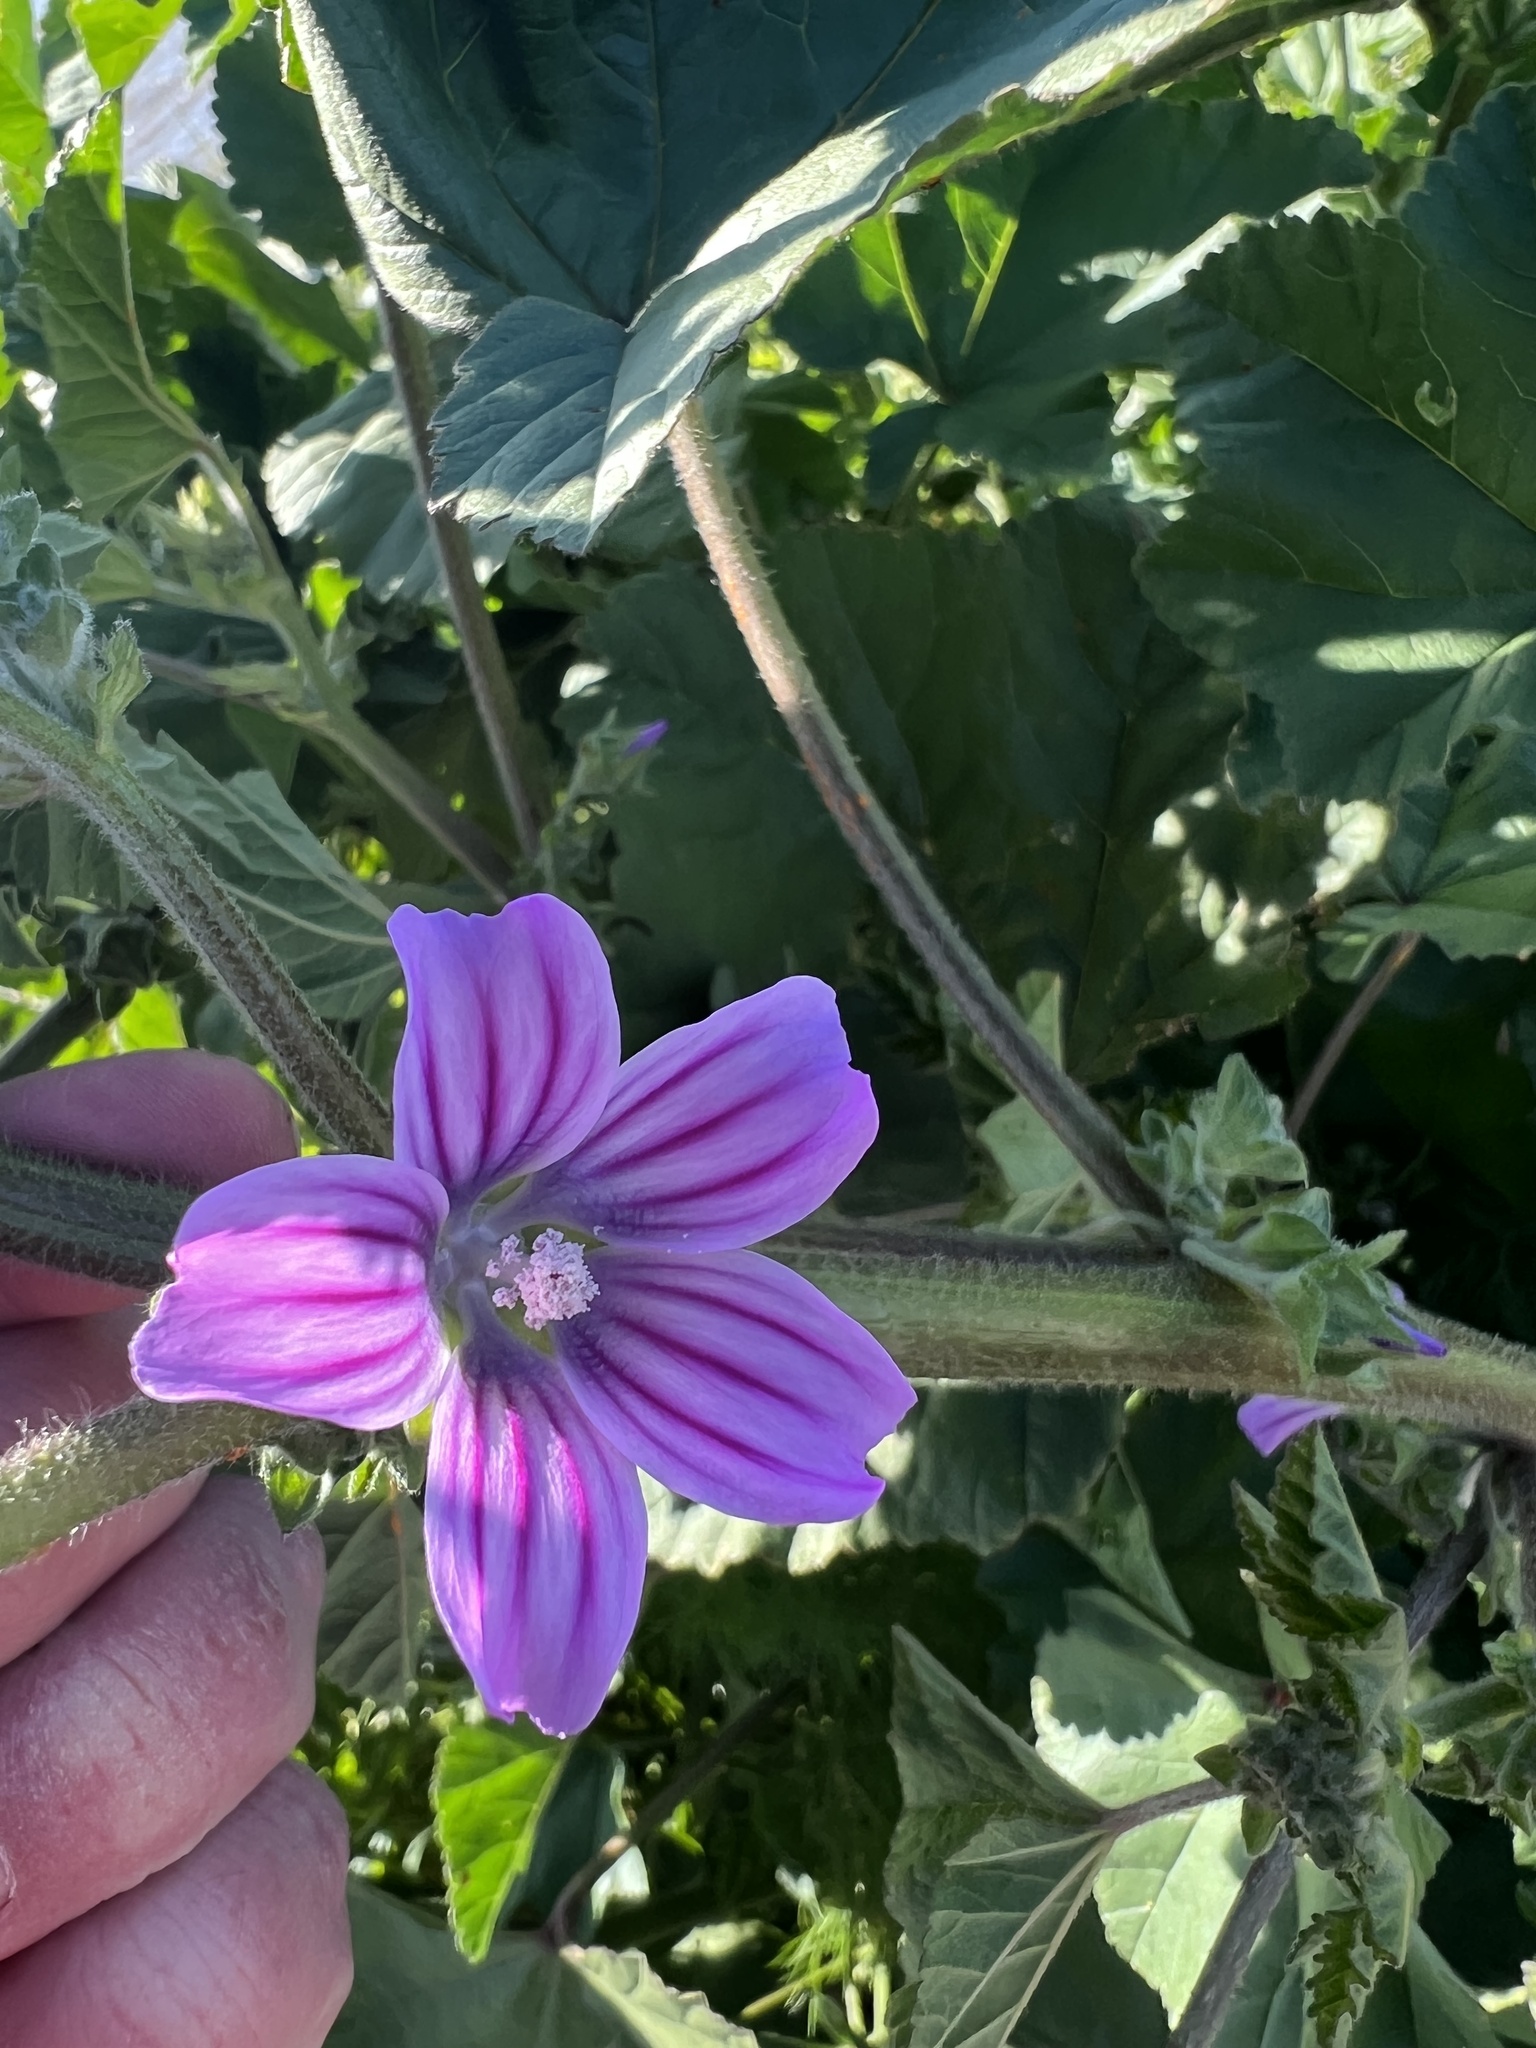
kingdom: Plantae
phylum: Tracheophyta
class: Magnoliopsida
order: Malvales
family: Malvaceae
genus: Malva
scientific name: Malva multiflora
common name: Cheeseweed
